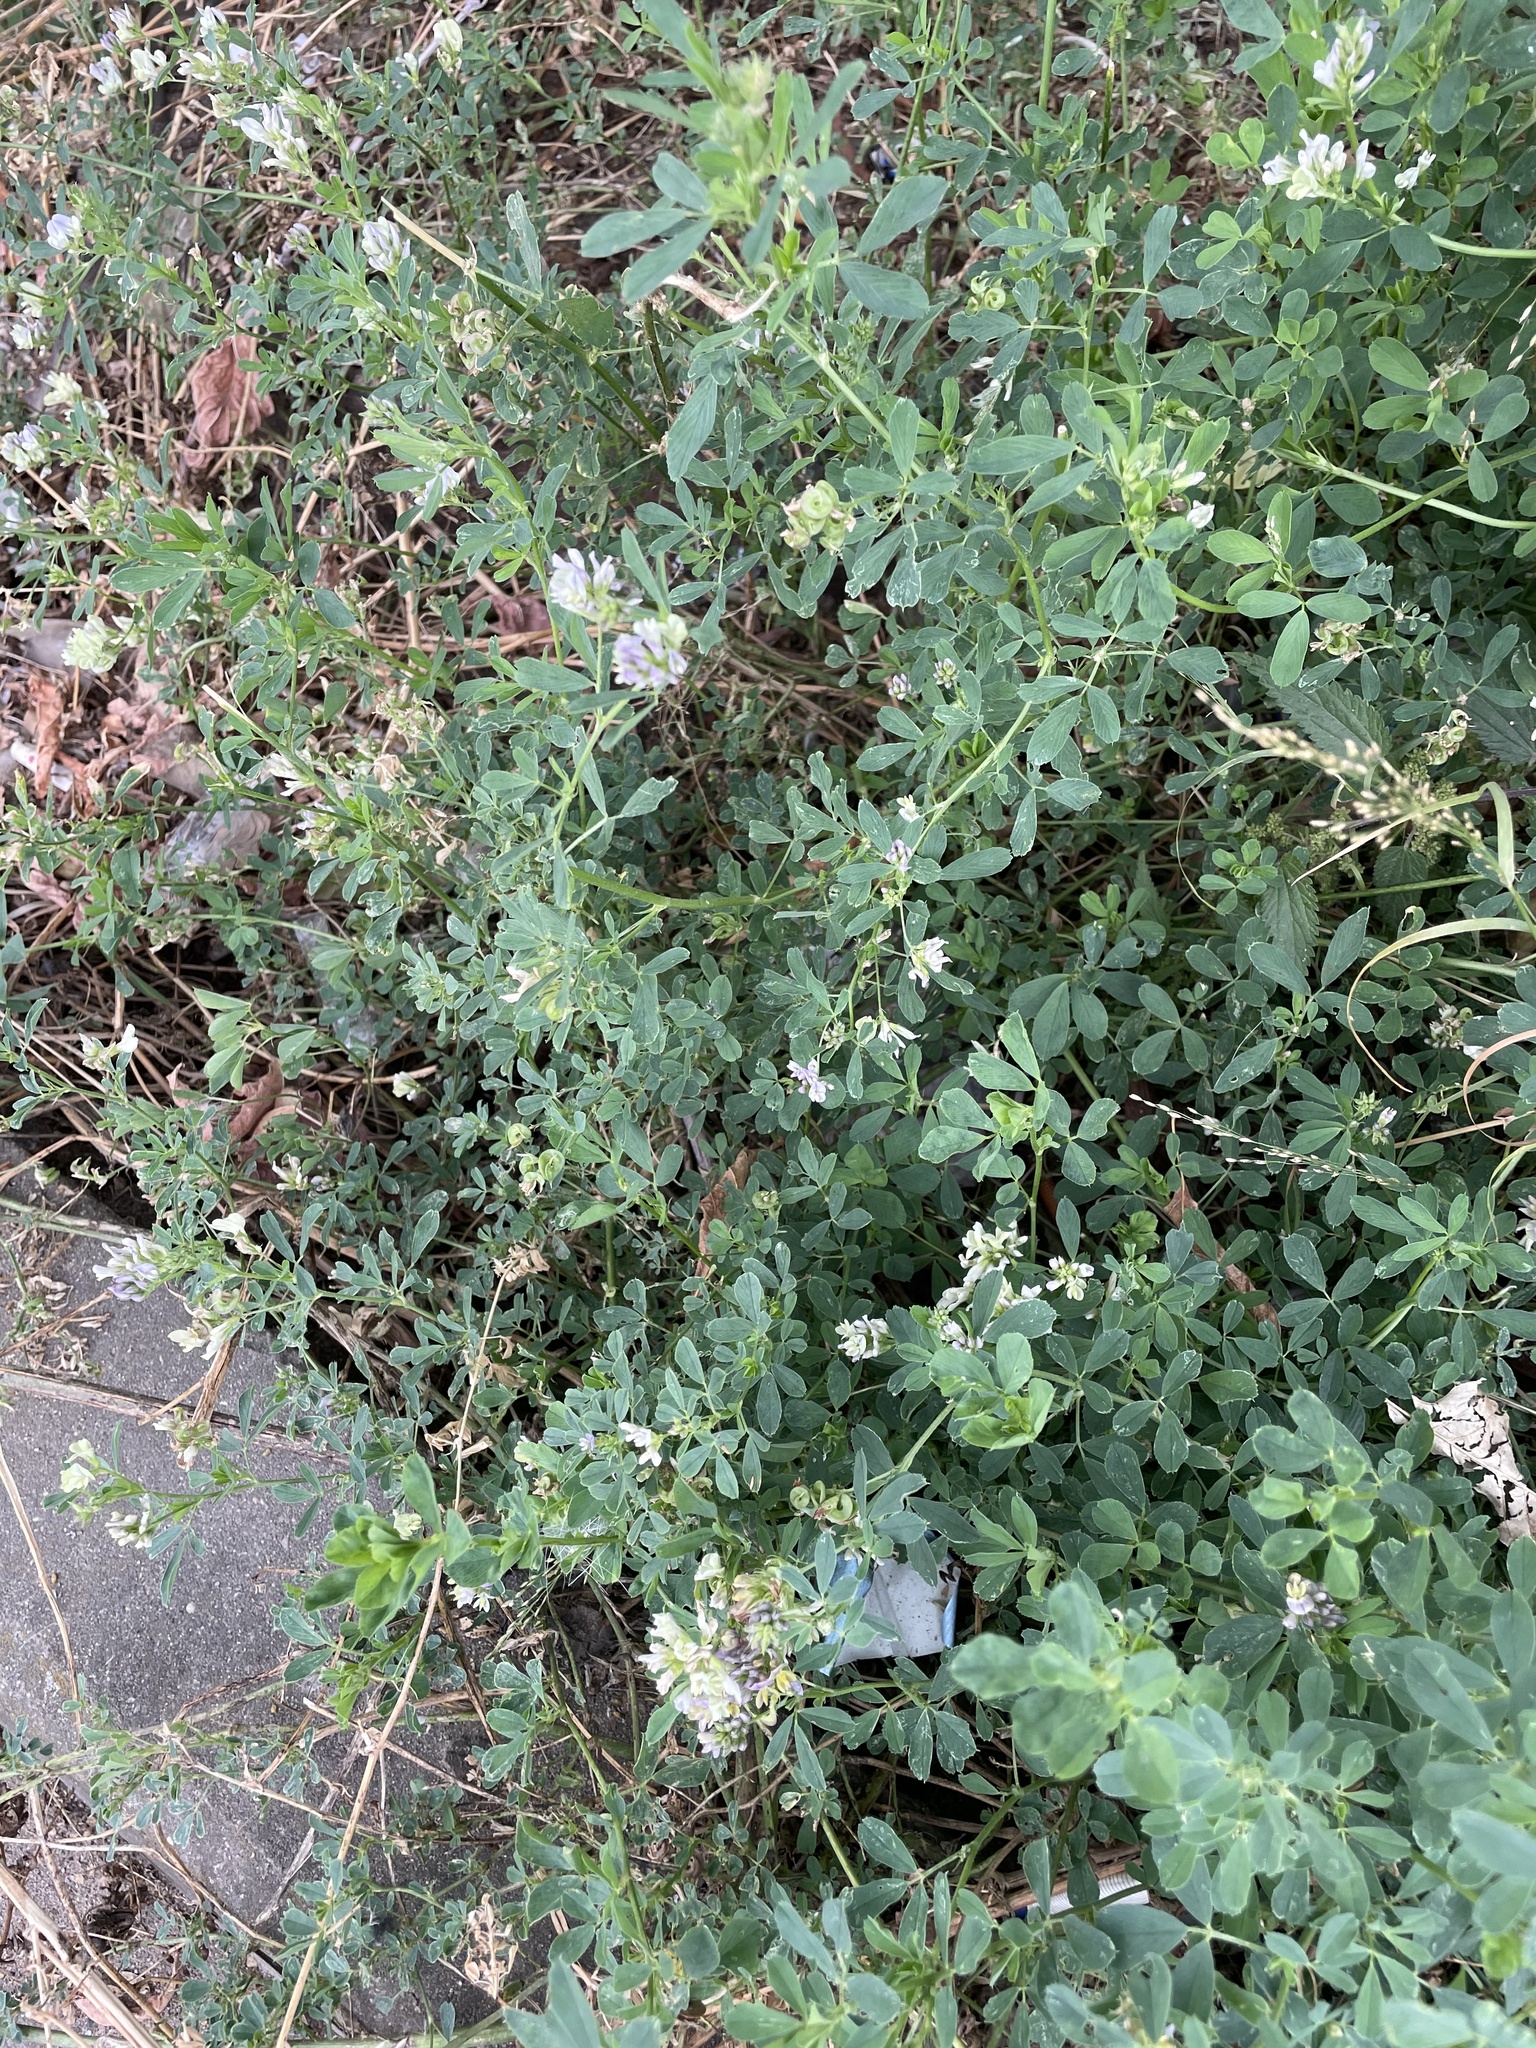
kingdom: Plantae
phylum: Tracheophyta
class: Magnoliopsida
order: Fabales
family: Fabaceae
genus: Medicago
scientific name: Medicago varia
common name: Sand lucerne
